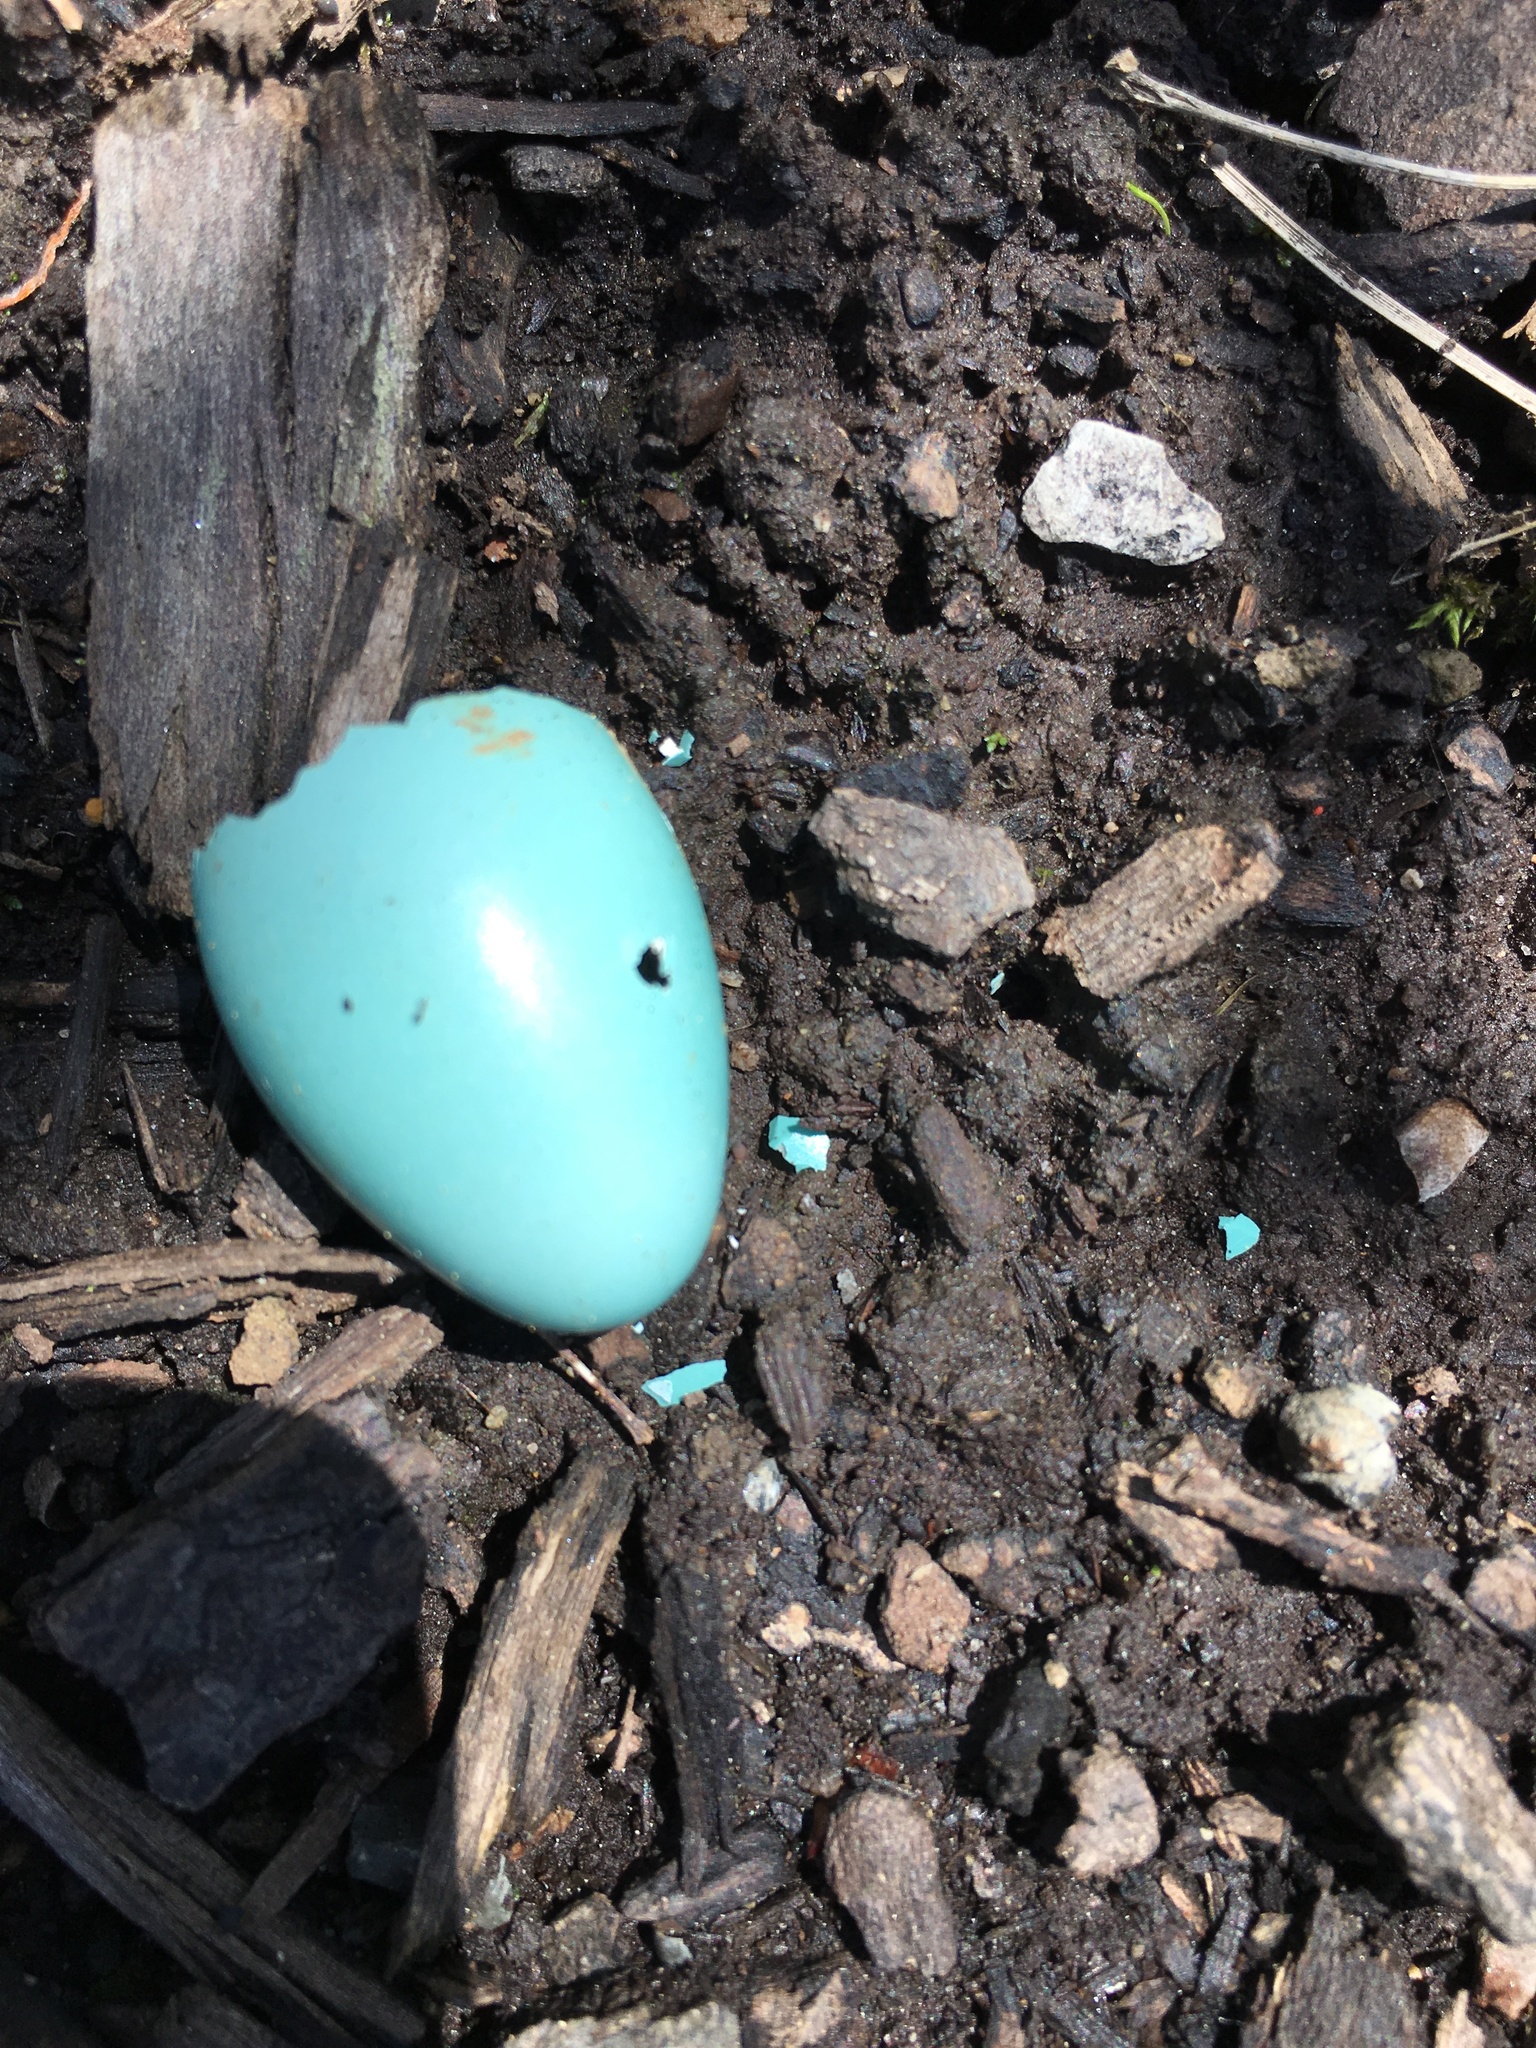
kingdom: Animalia
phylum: Chordata
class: Aves
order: Passeriformes
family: Turdidae
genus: Turdus
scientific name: Turdus migratorius
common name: American robin
